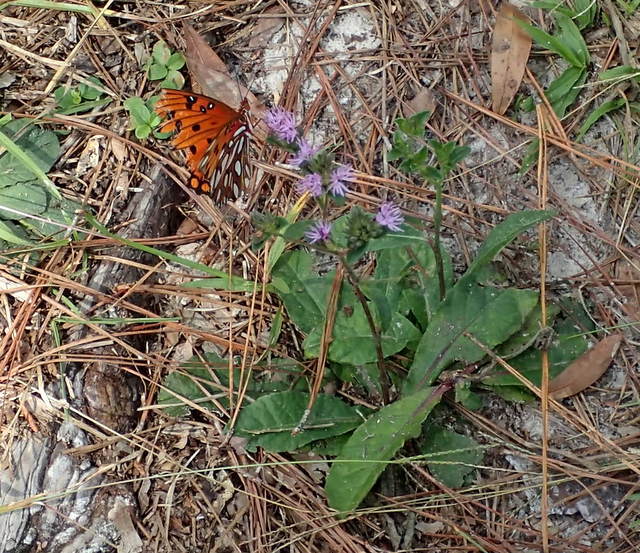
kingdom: Animalia
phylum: Arthropoda
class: Insecta
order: Lepidoptera
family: Nymphalidae
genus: Dione
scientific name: Dione vanillae
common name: Gulf fritillary
